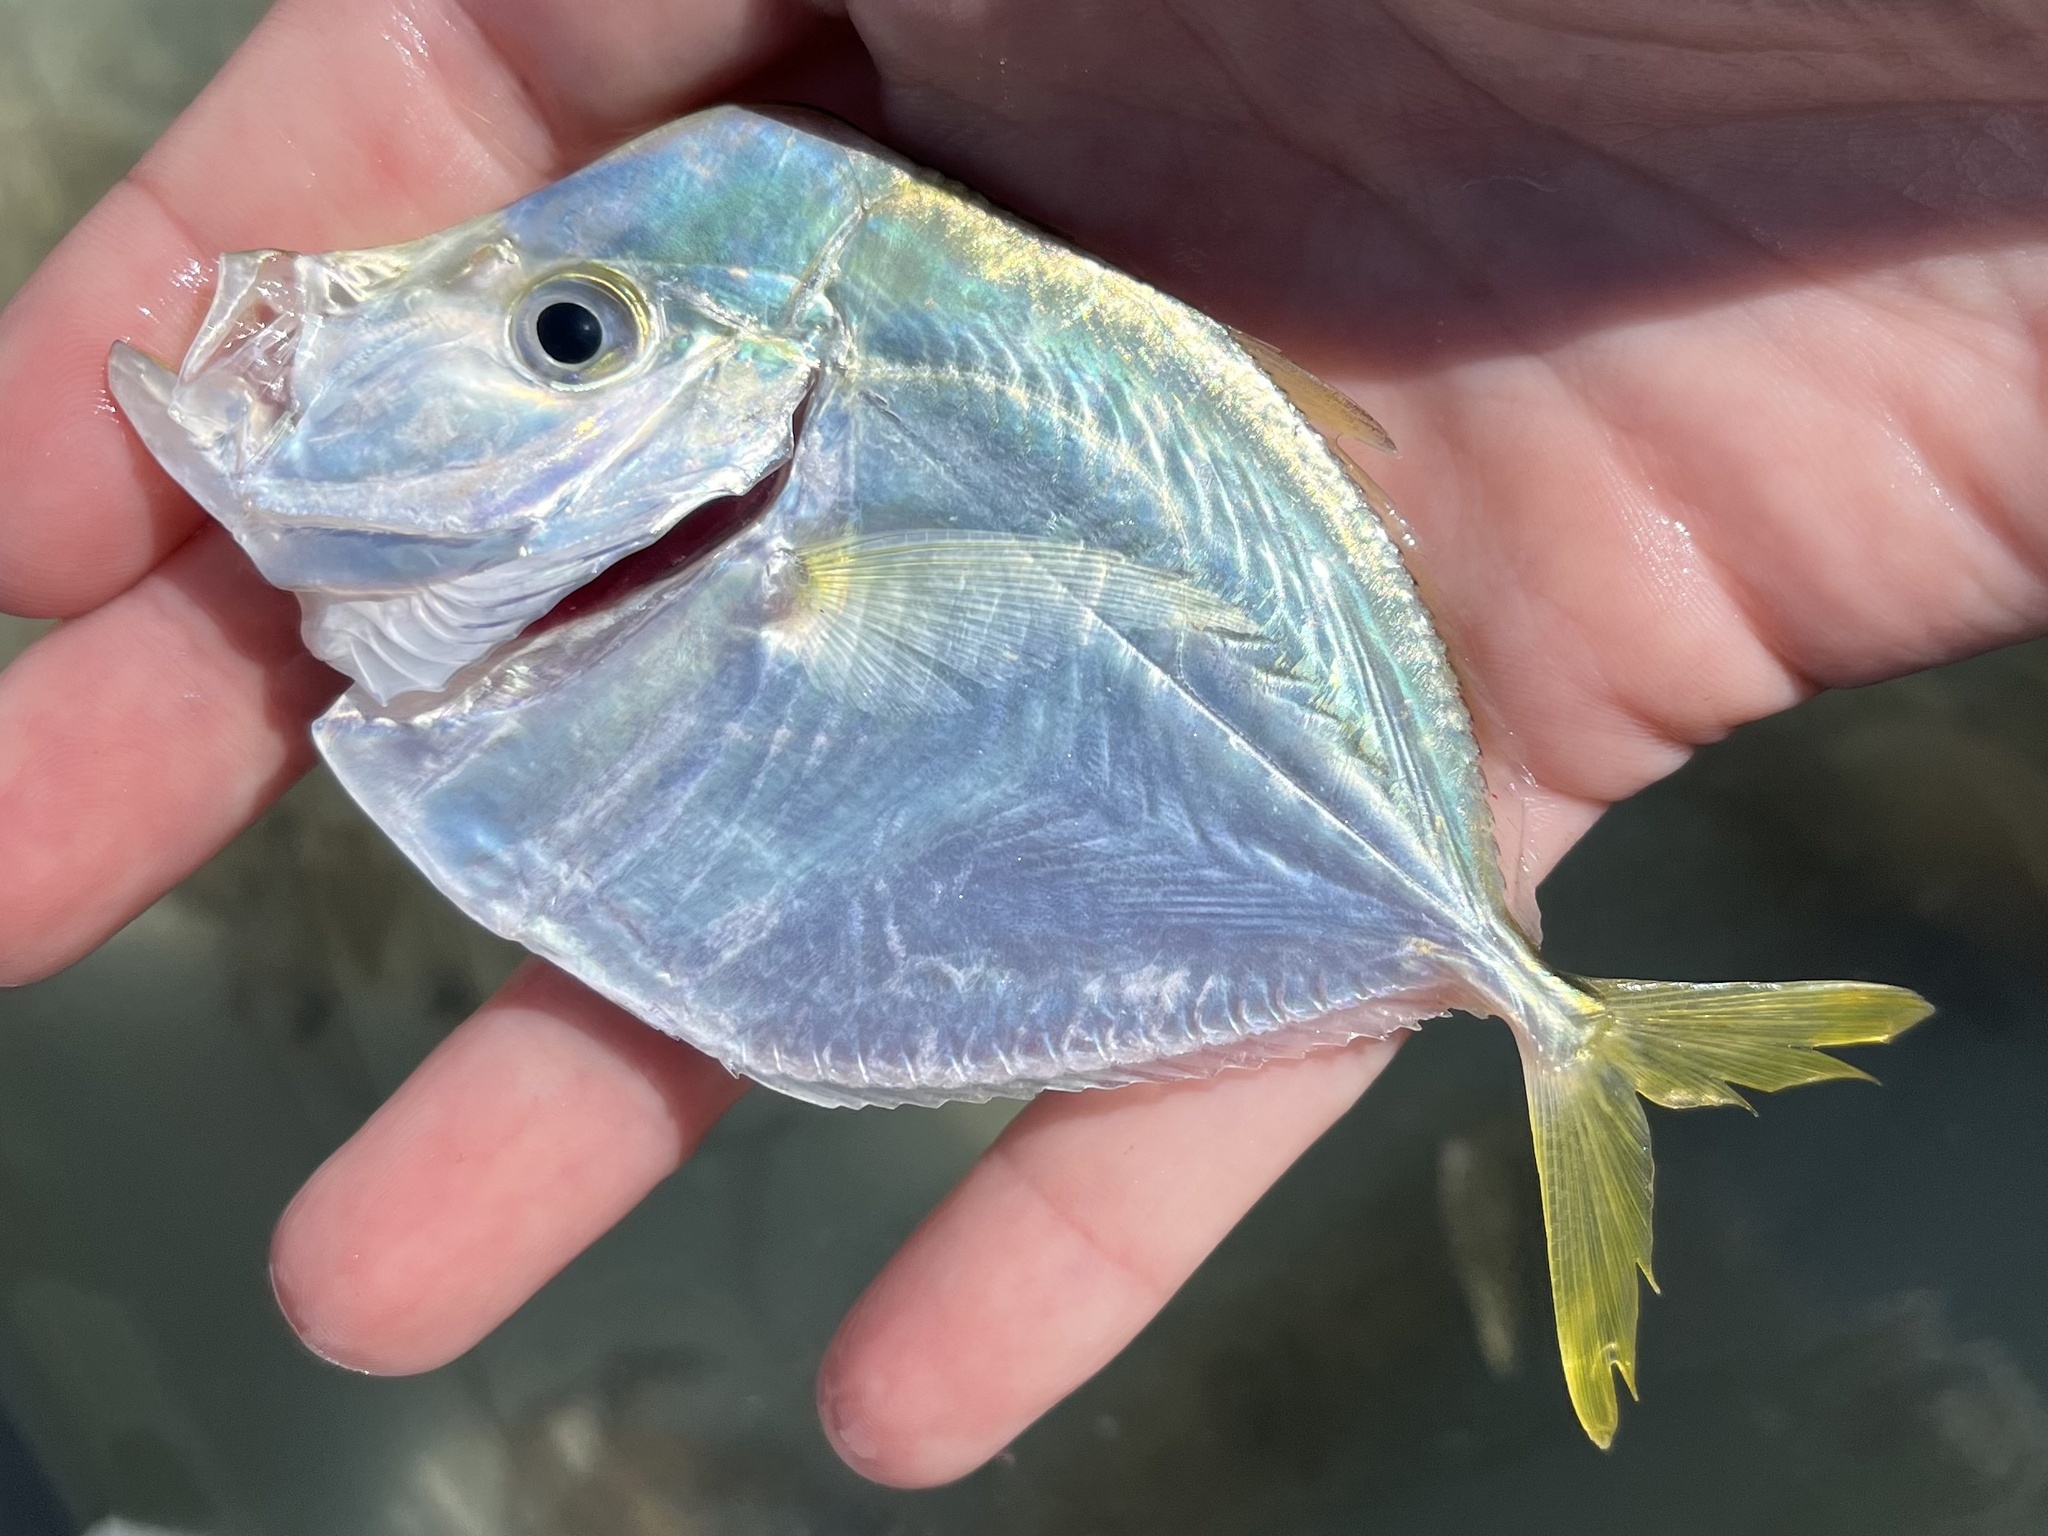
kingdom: Animalia
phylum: Chordata
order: Perciformes
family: Carangidae
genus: Selene
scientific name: Selene setapinnis
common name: Moonfish
